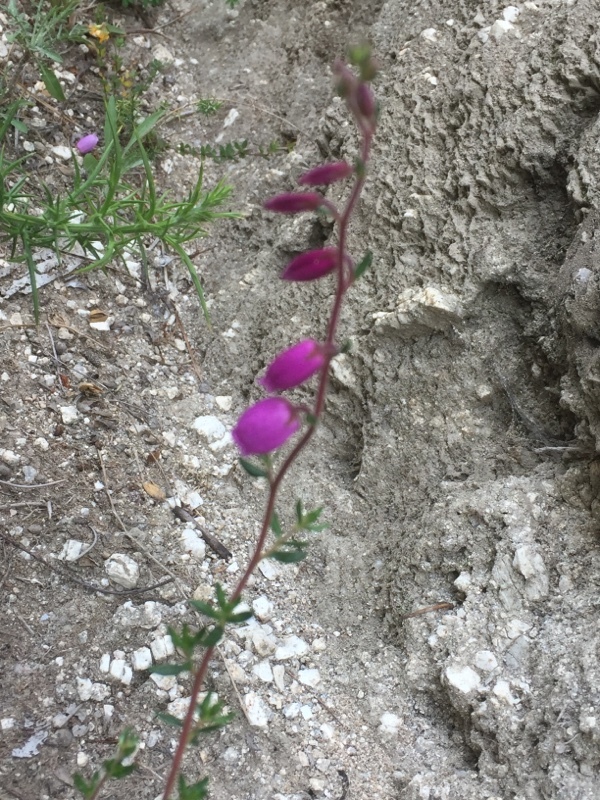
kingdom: Plantae
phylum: Tracheophyta
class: Magnoliopsida
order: Ericales
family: Ericaceae
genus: Daboecia
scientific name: Daboecia cantabrica
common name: St. dabeoc's-heath
